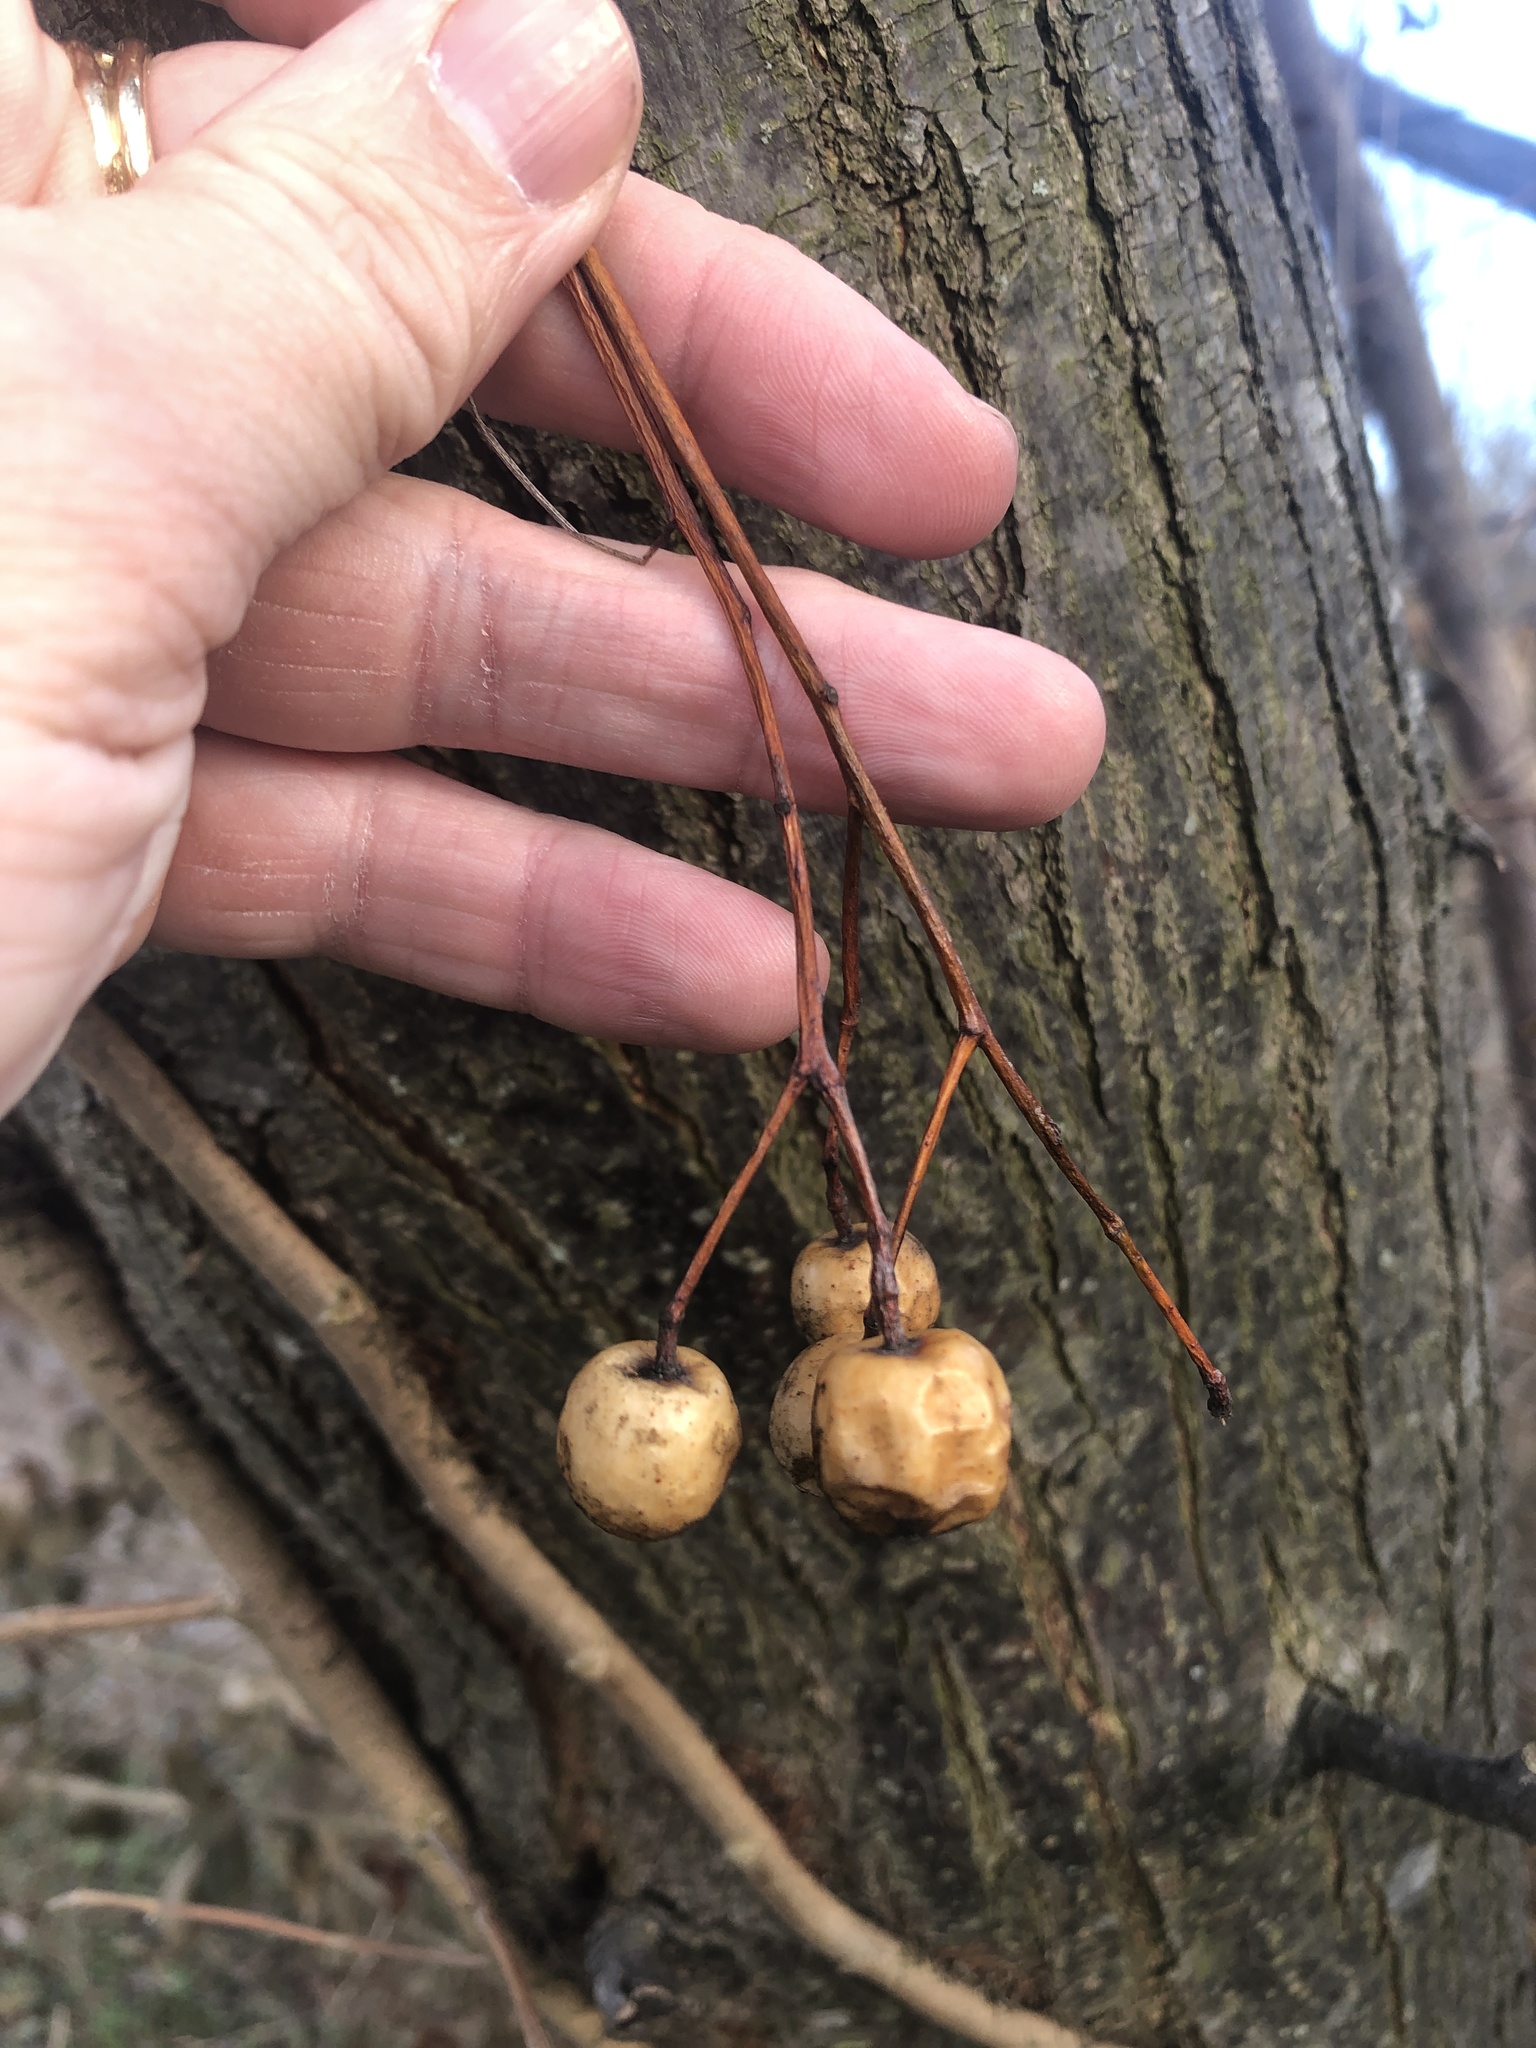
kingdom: Plantae
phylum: Tracheophyta
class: Magnoliopsida
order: Sapindales
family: Meliaceae
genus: Melia
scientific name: Melia azedarach
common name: Chinaberrytree
